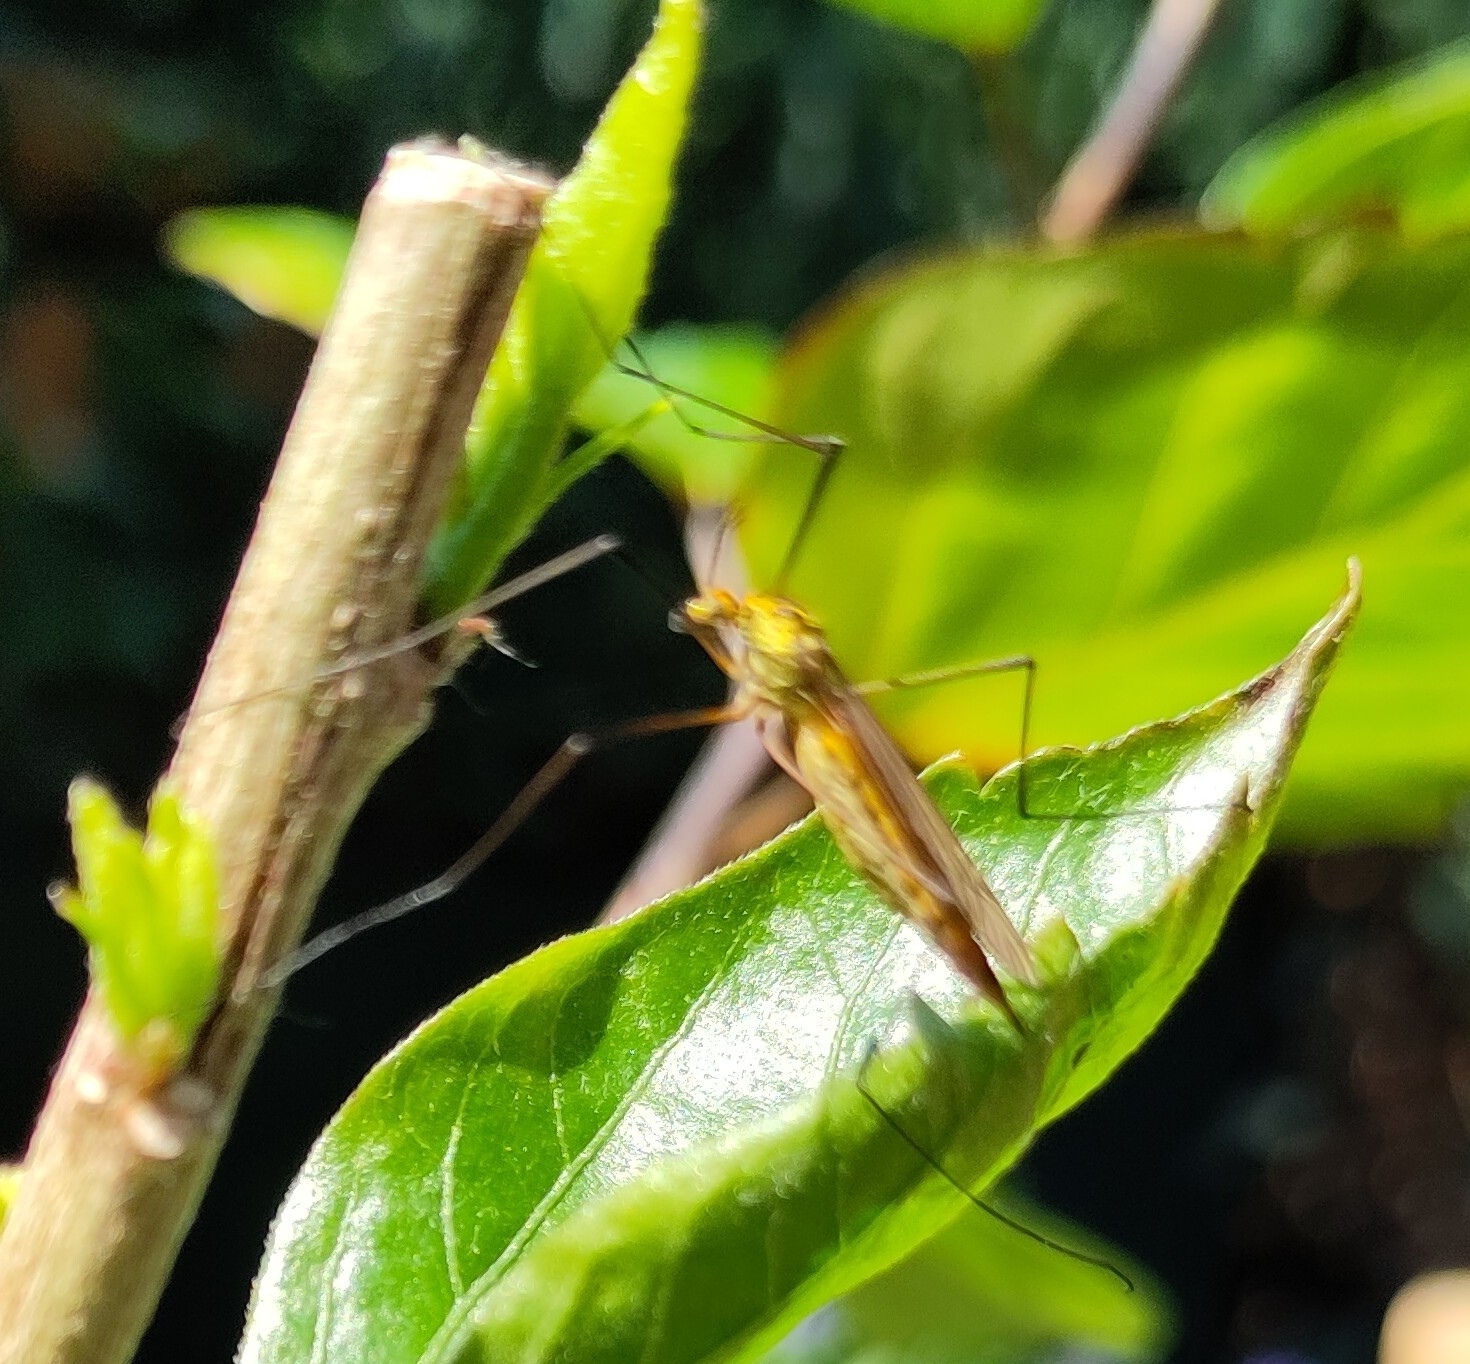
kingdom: Animalia
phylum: Arthropoda
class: Insecta
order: Diptera
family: Tipulidae
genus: Nephrotoma
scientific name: Nephrotoma appendiculata
